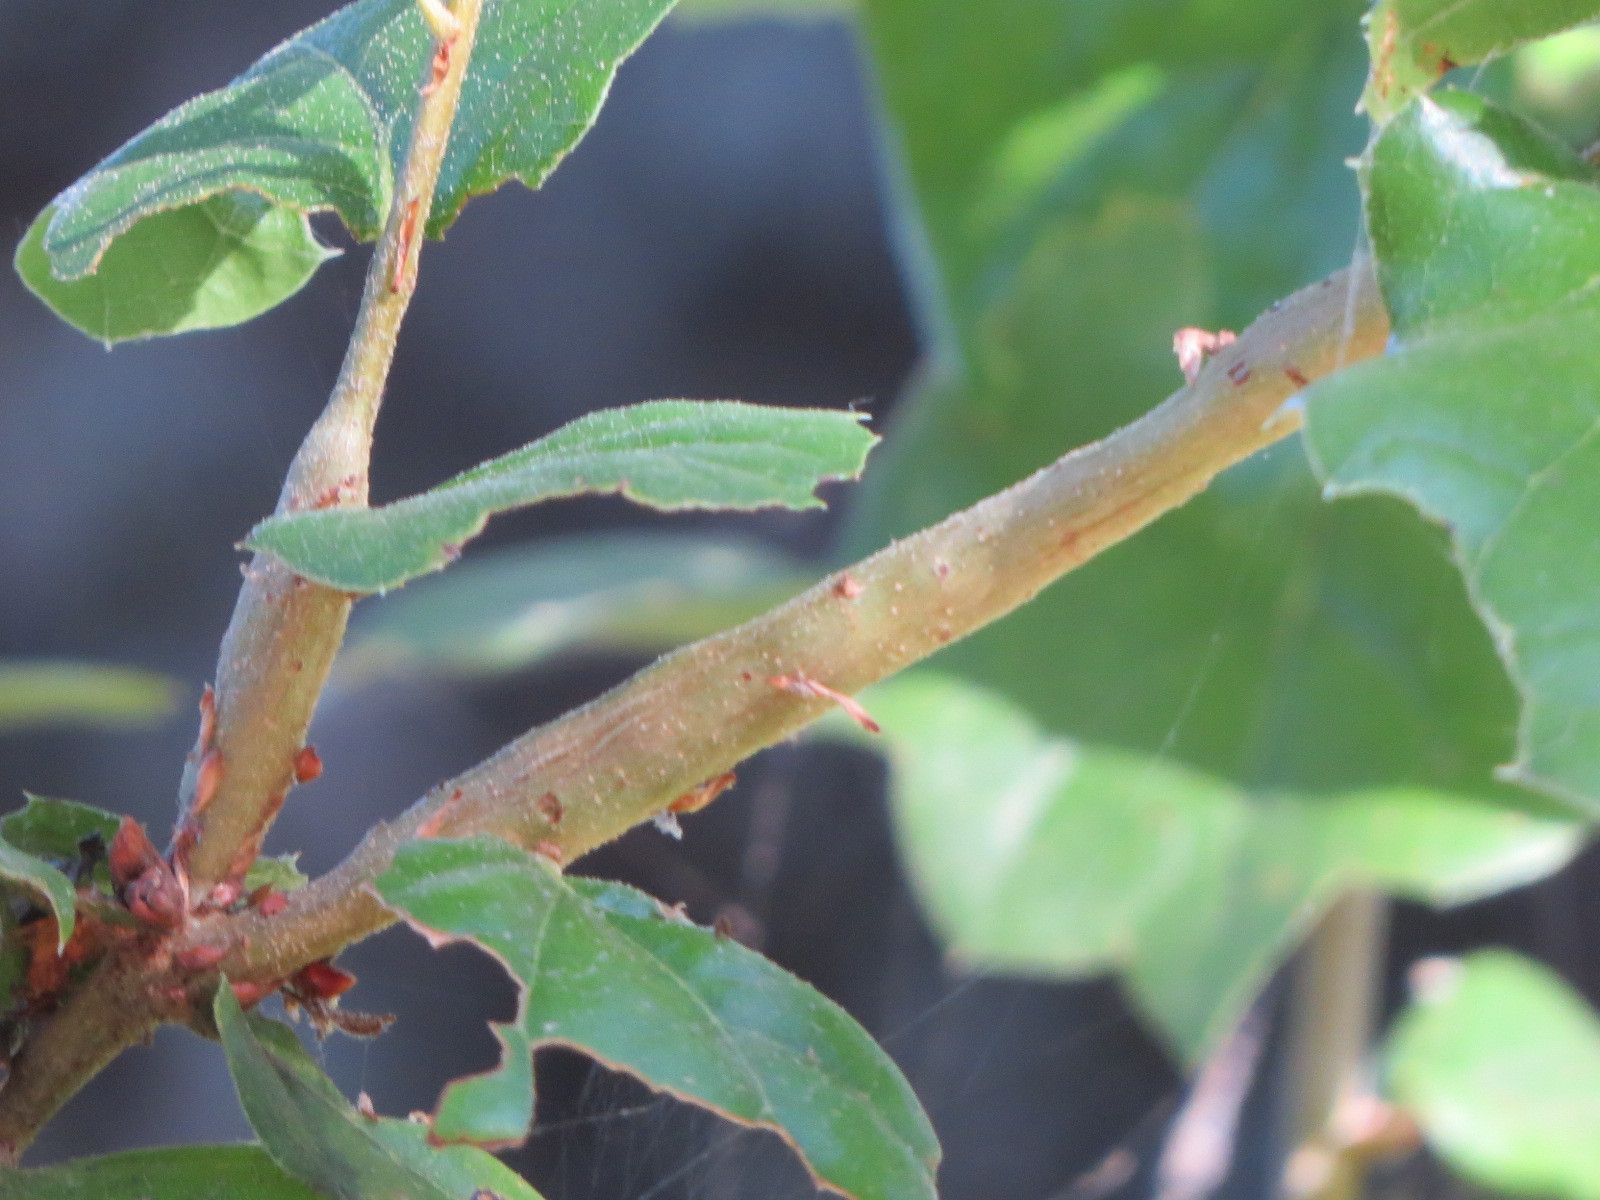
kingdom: Animalia
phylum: Arthropoda
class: Insecta
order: Hymenoptera
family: Cynipidae
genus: Callirhytis
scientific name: Callirhytis
